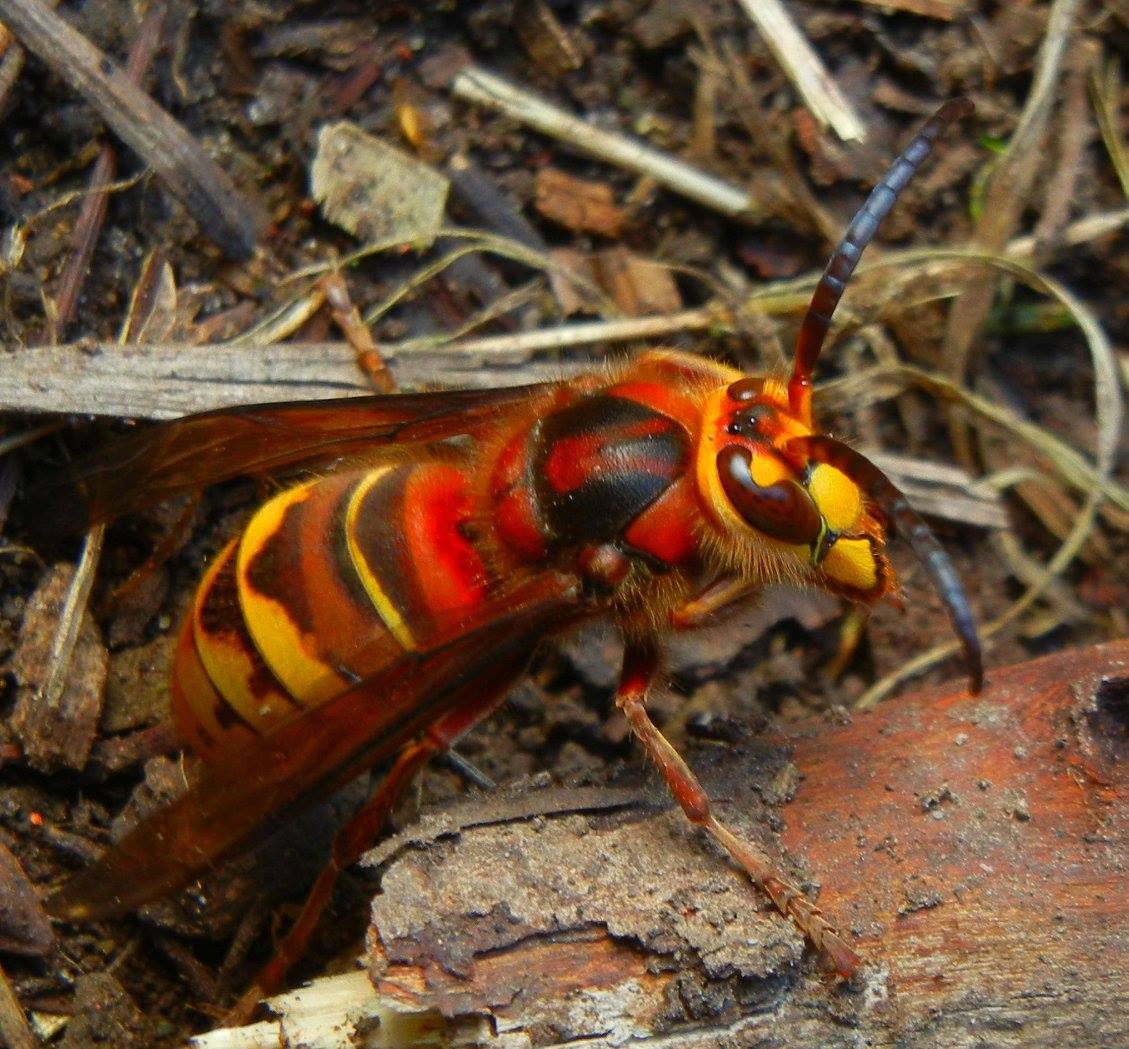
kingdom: Animalia
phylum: Arthropoda
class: Insecta
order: Hymenoptera
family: Vespidae
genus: Vespa
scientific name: Vespa crabro
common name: Hornet
